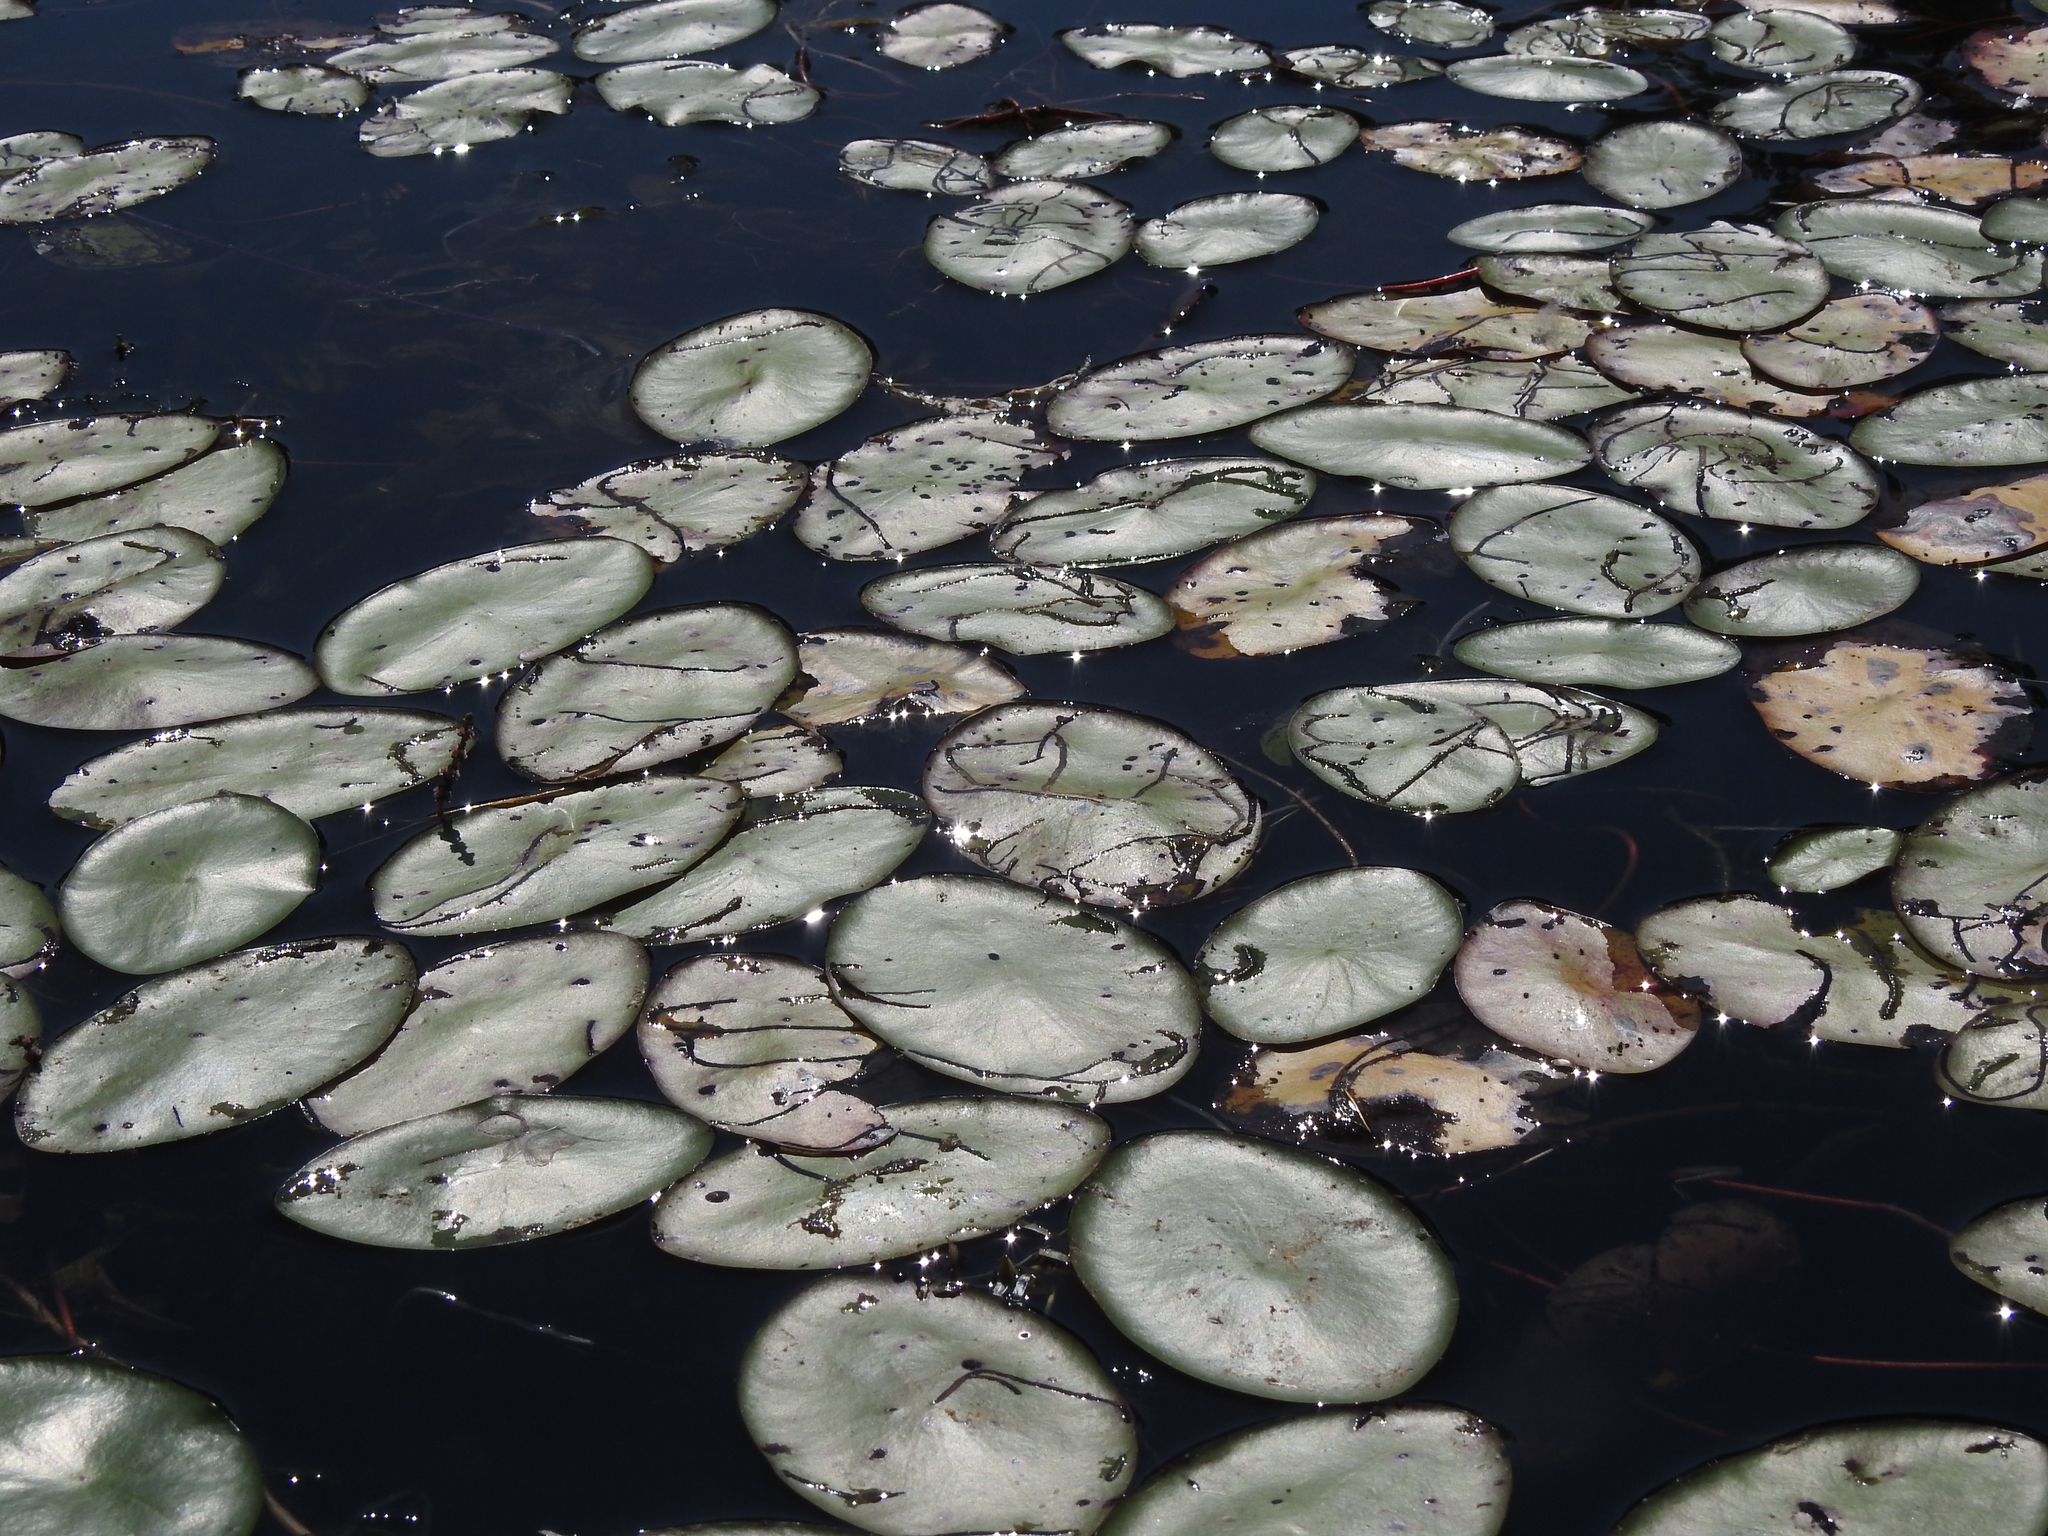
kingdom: Plantae
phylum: Tracheophyta
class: Magnoliopsida
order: Nymphaeales
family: Cabombaceae
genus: Brasenia
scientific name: Brasenia schreberi
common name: Water-shield
